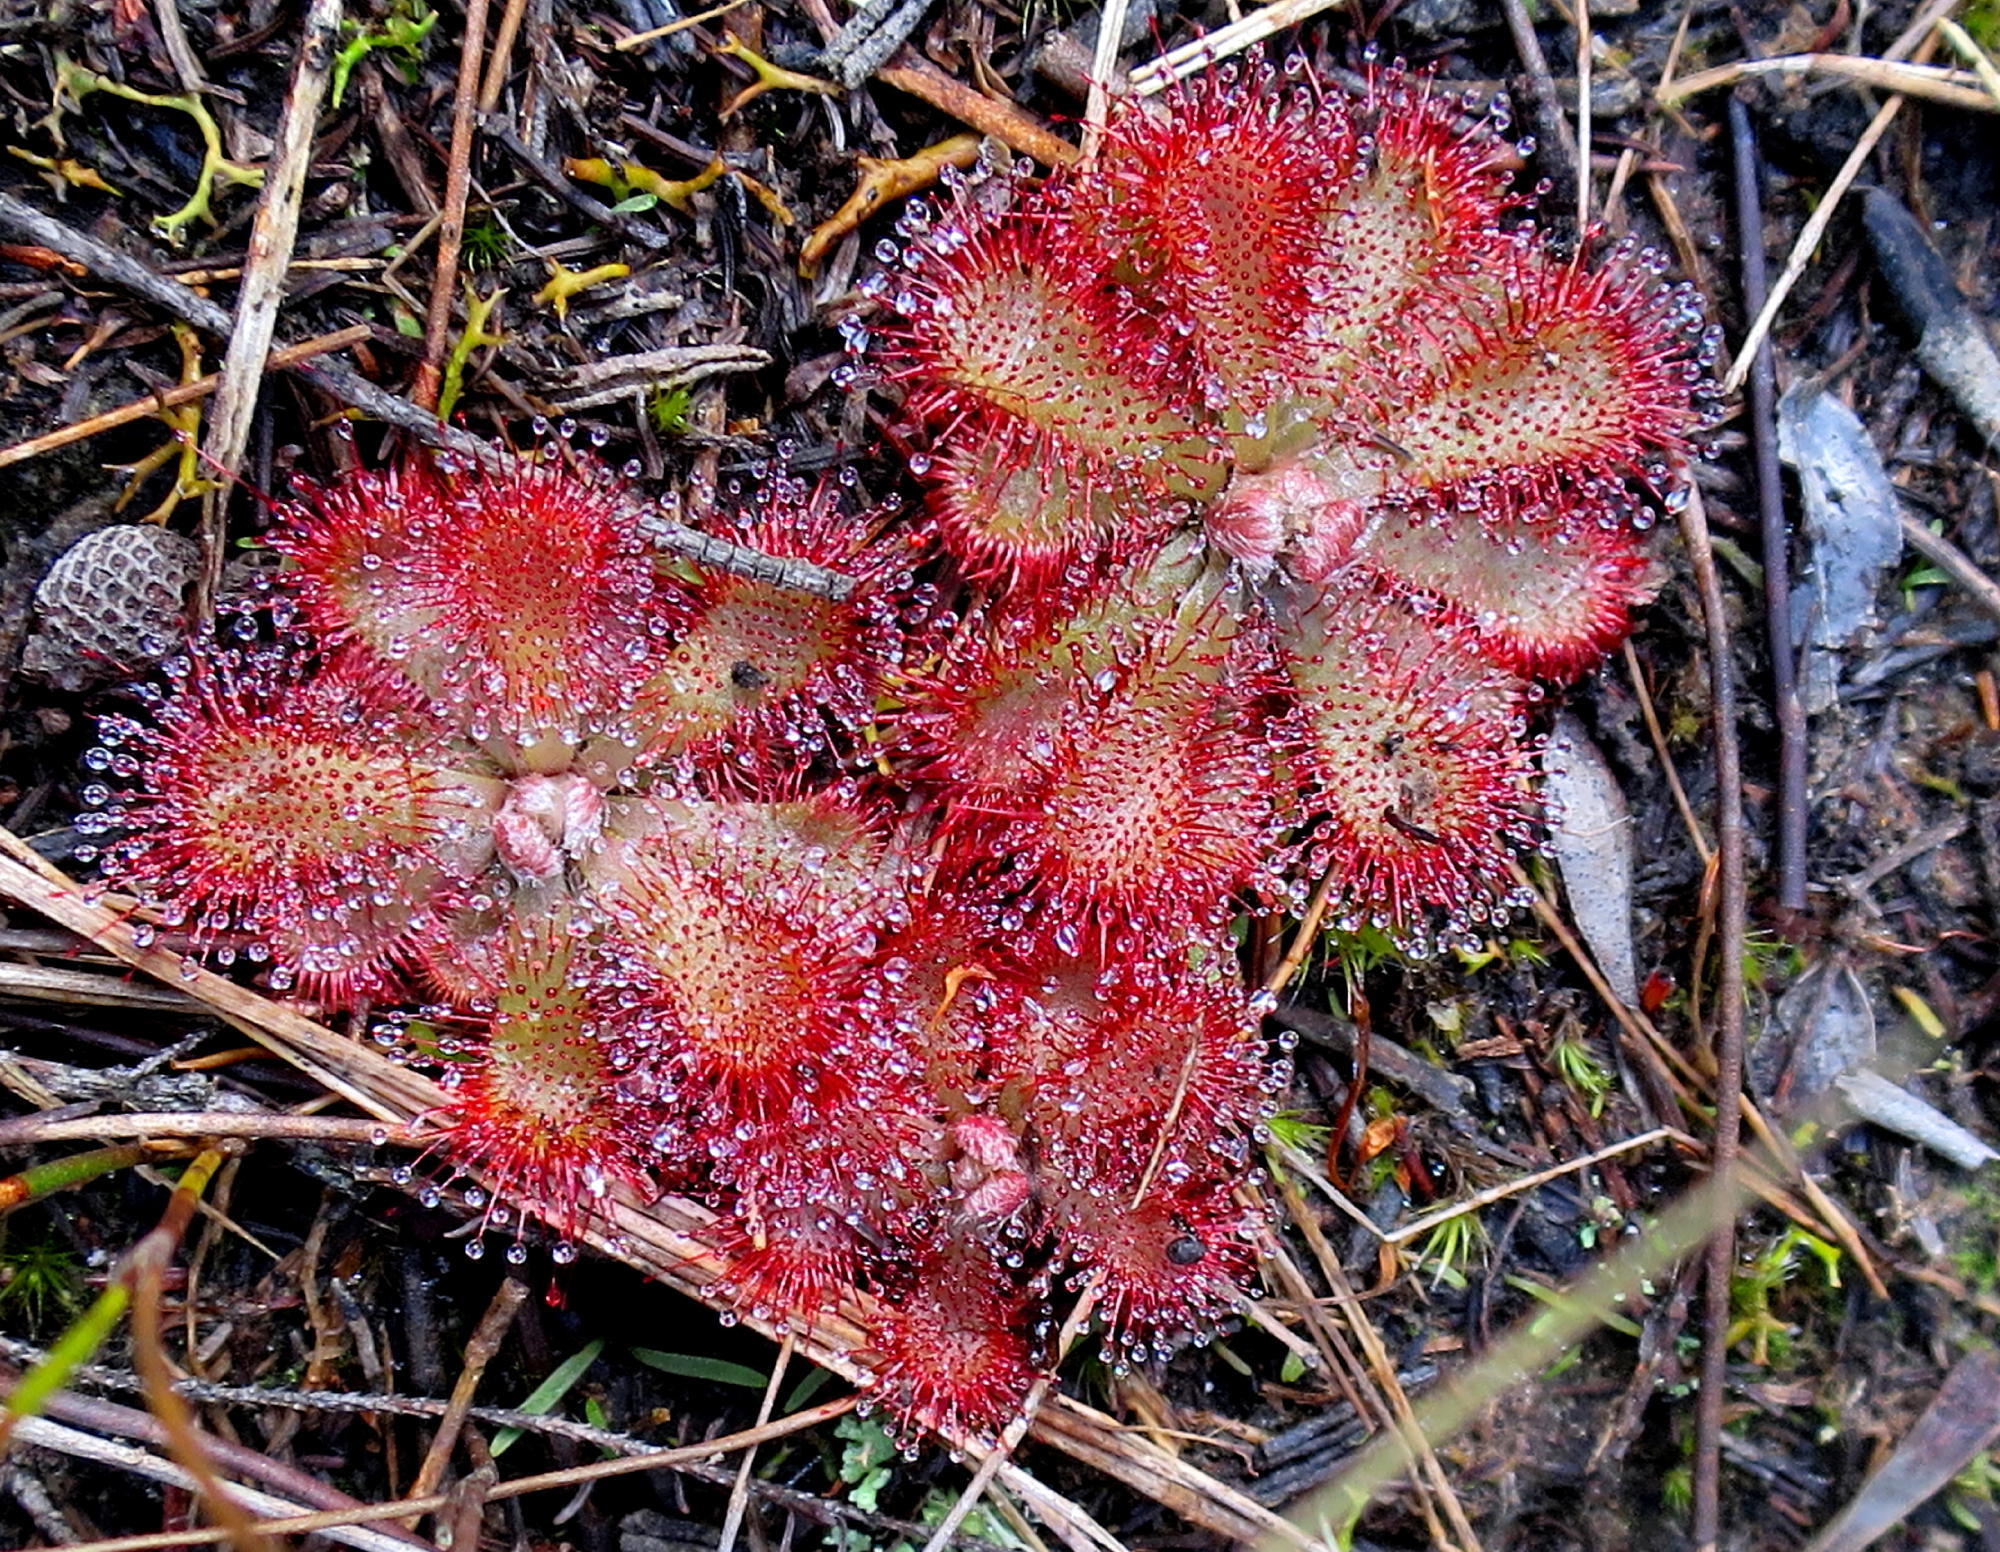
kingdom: Plantae
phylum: Tracheophyta
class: Magnoliopsida
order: Caryophyllales
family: Droseraceae
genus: Drosera
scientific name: Drosera aliciae
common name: Alice sundew
